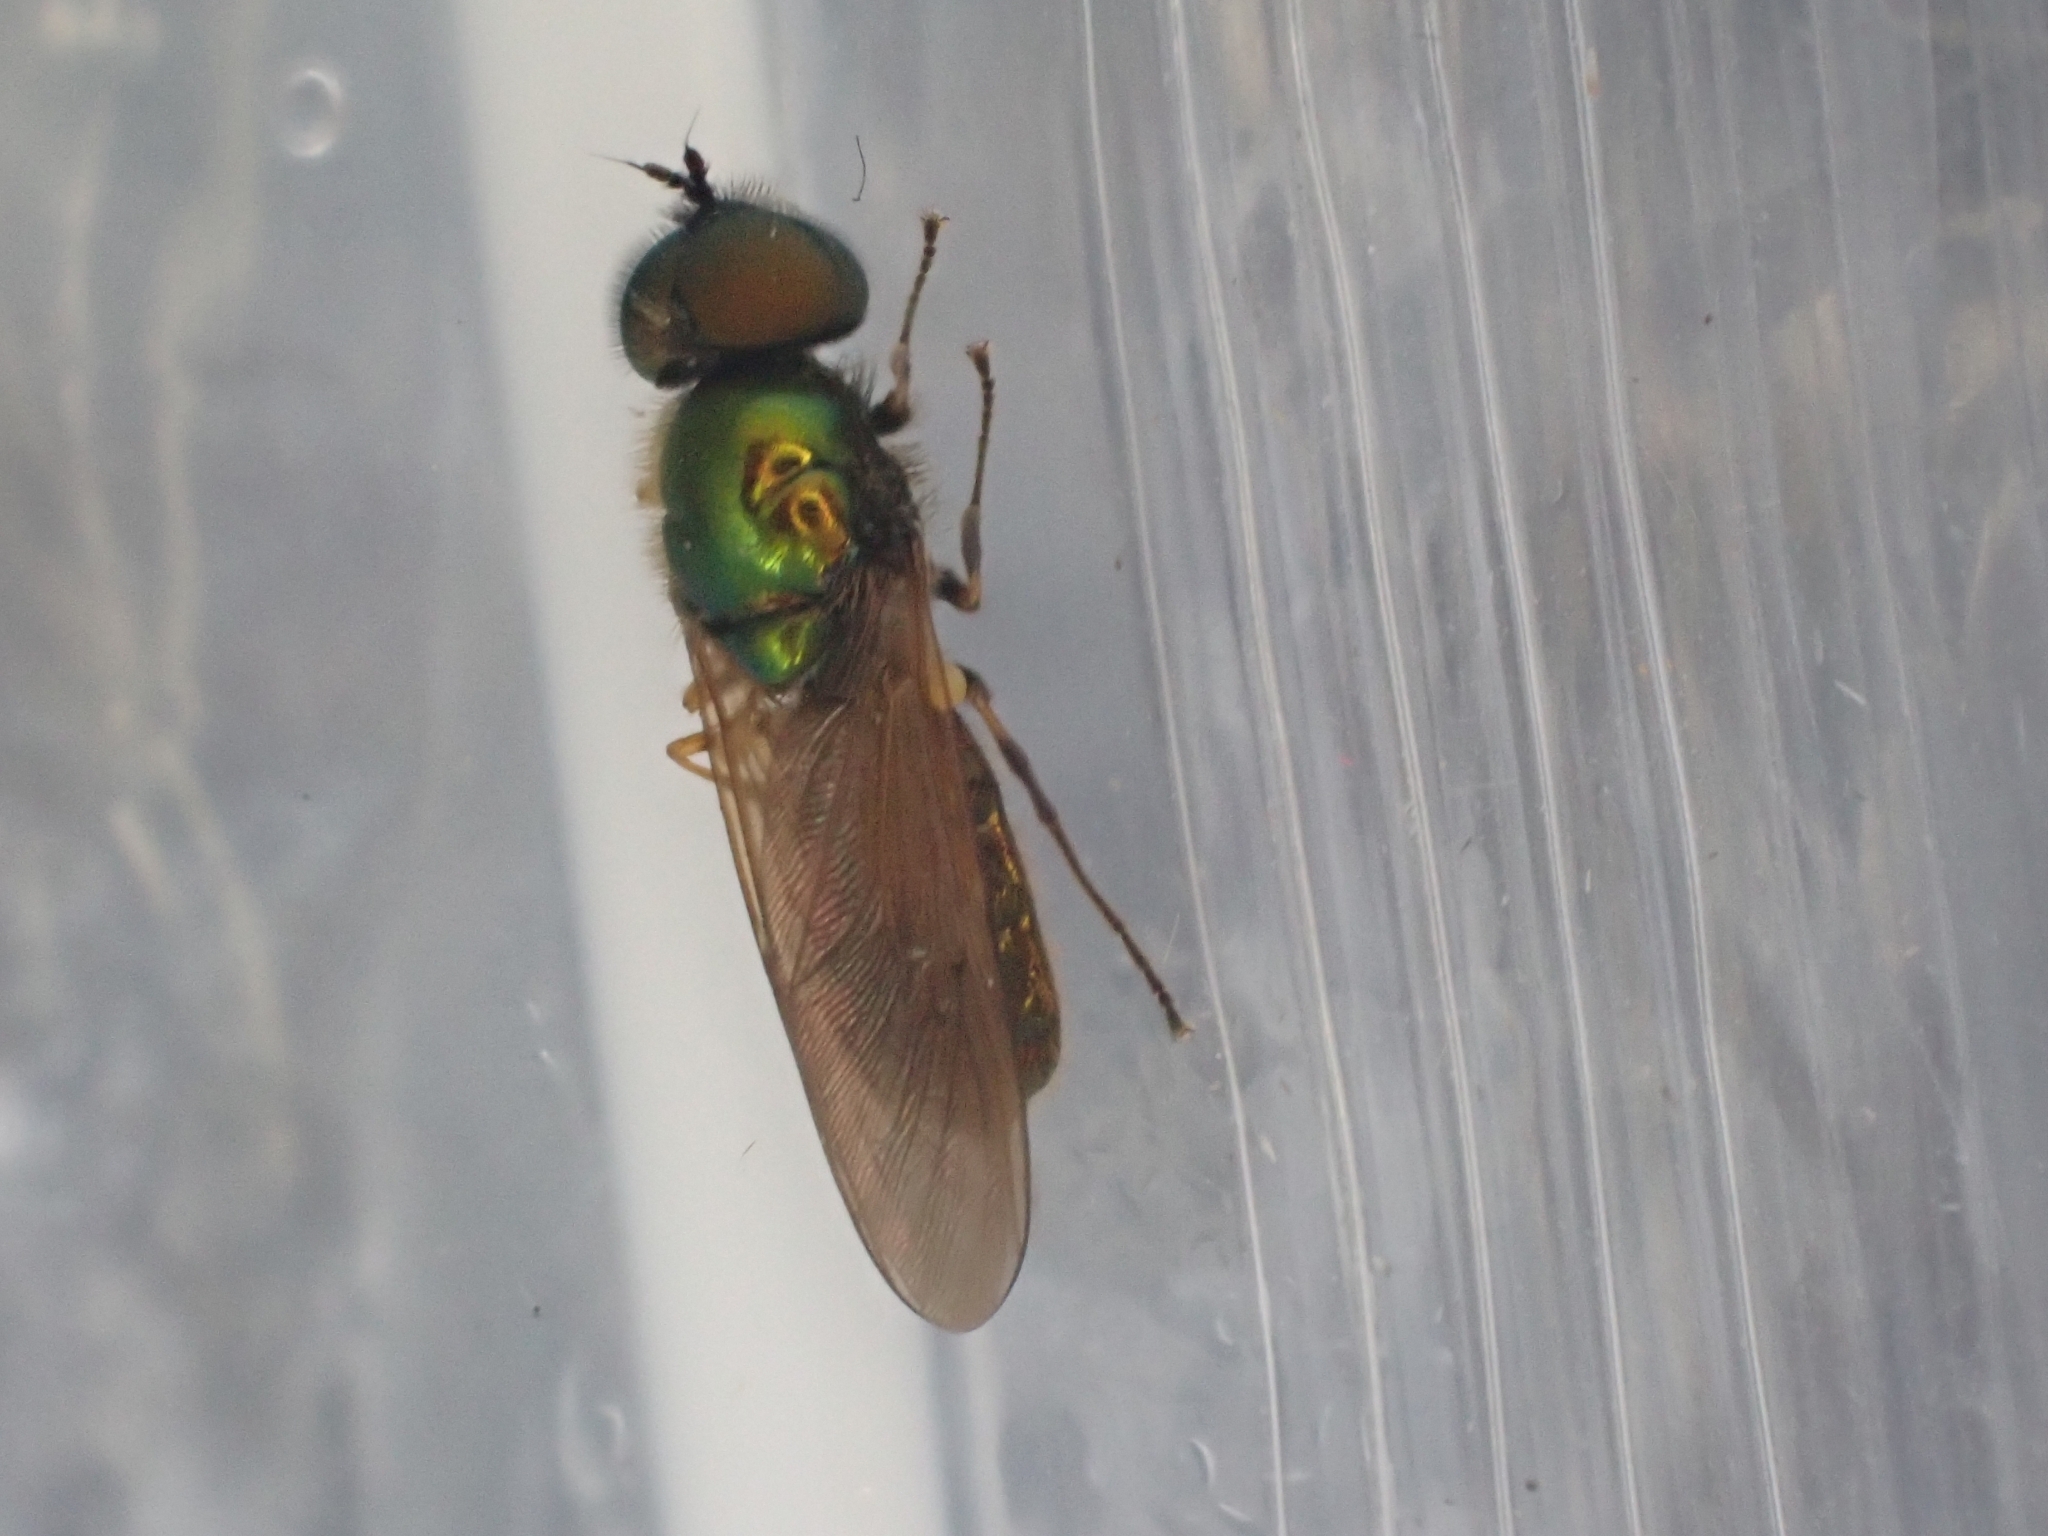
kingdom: Animalia
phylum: Arthropoda
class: Insecta
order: Diptera
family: Stratiomyidae
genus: Chloromyia
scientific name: Chloromyia formosa
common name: Soldier fly
